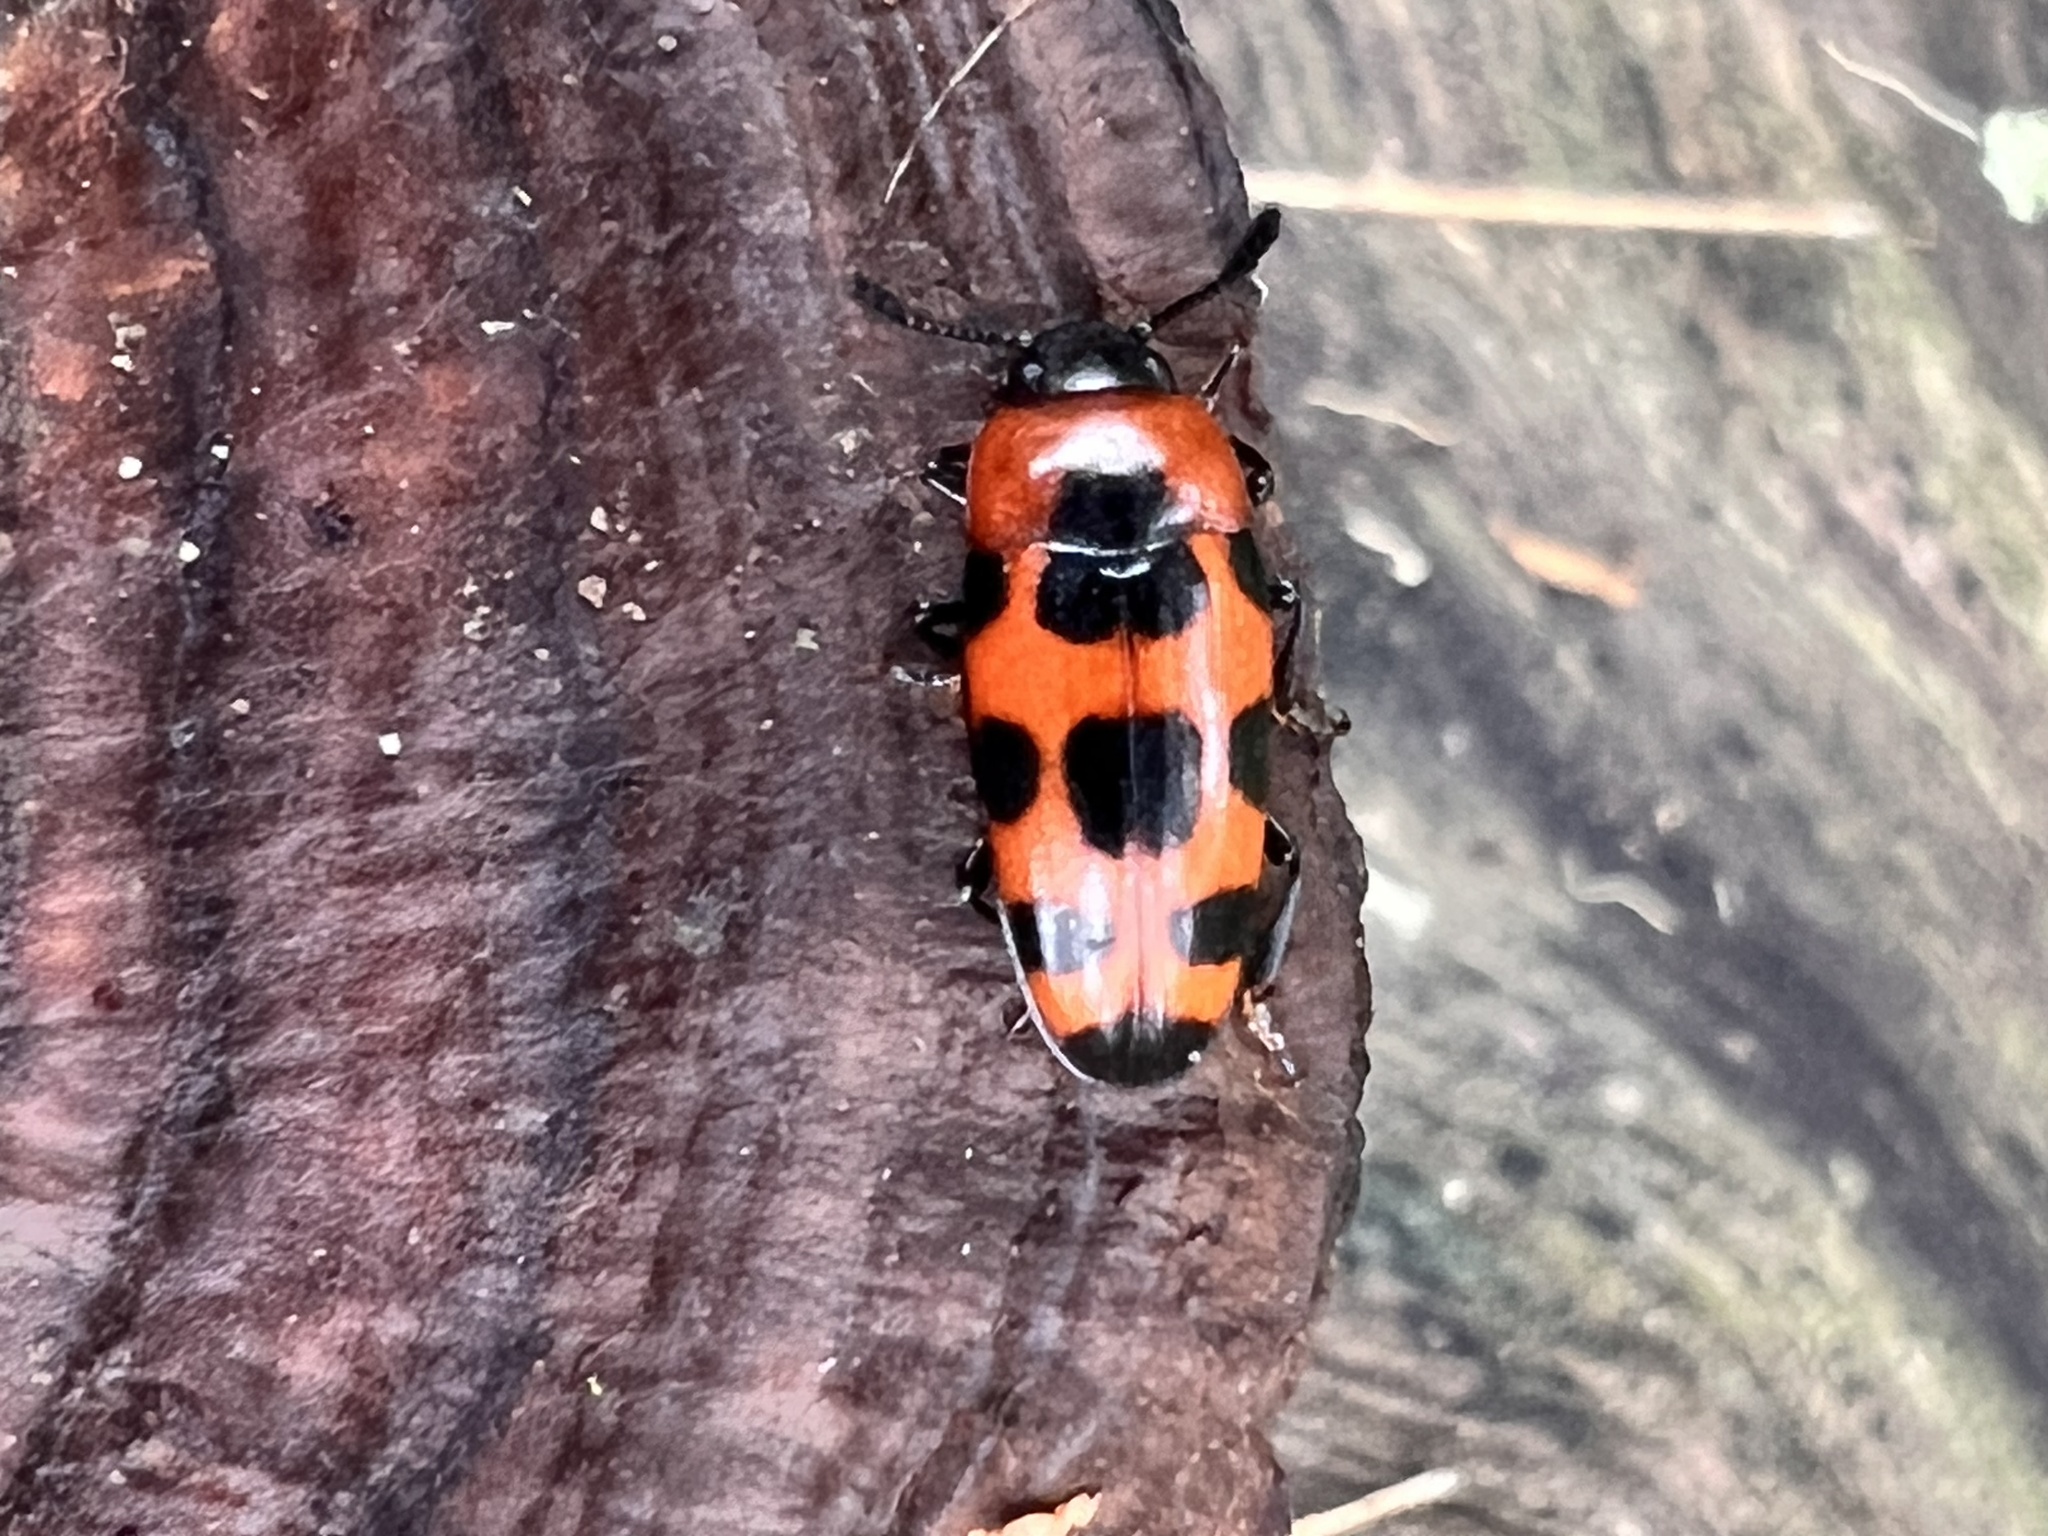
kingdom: Animalia
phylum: Arthropoda
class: Insecta
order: Coleoptera
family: Erotylidae
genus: Episcaphula
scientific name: Episcaphula australis
